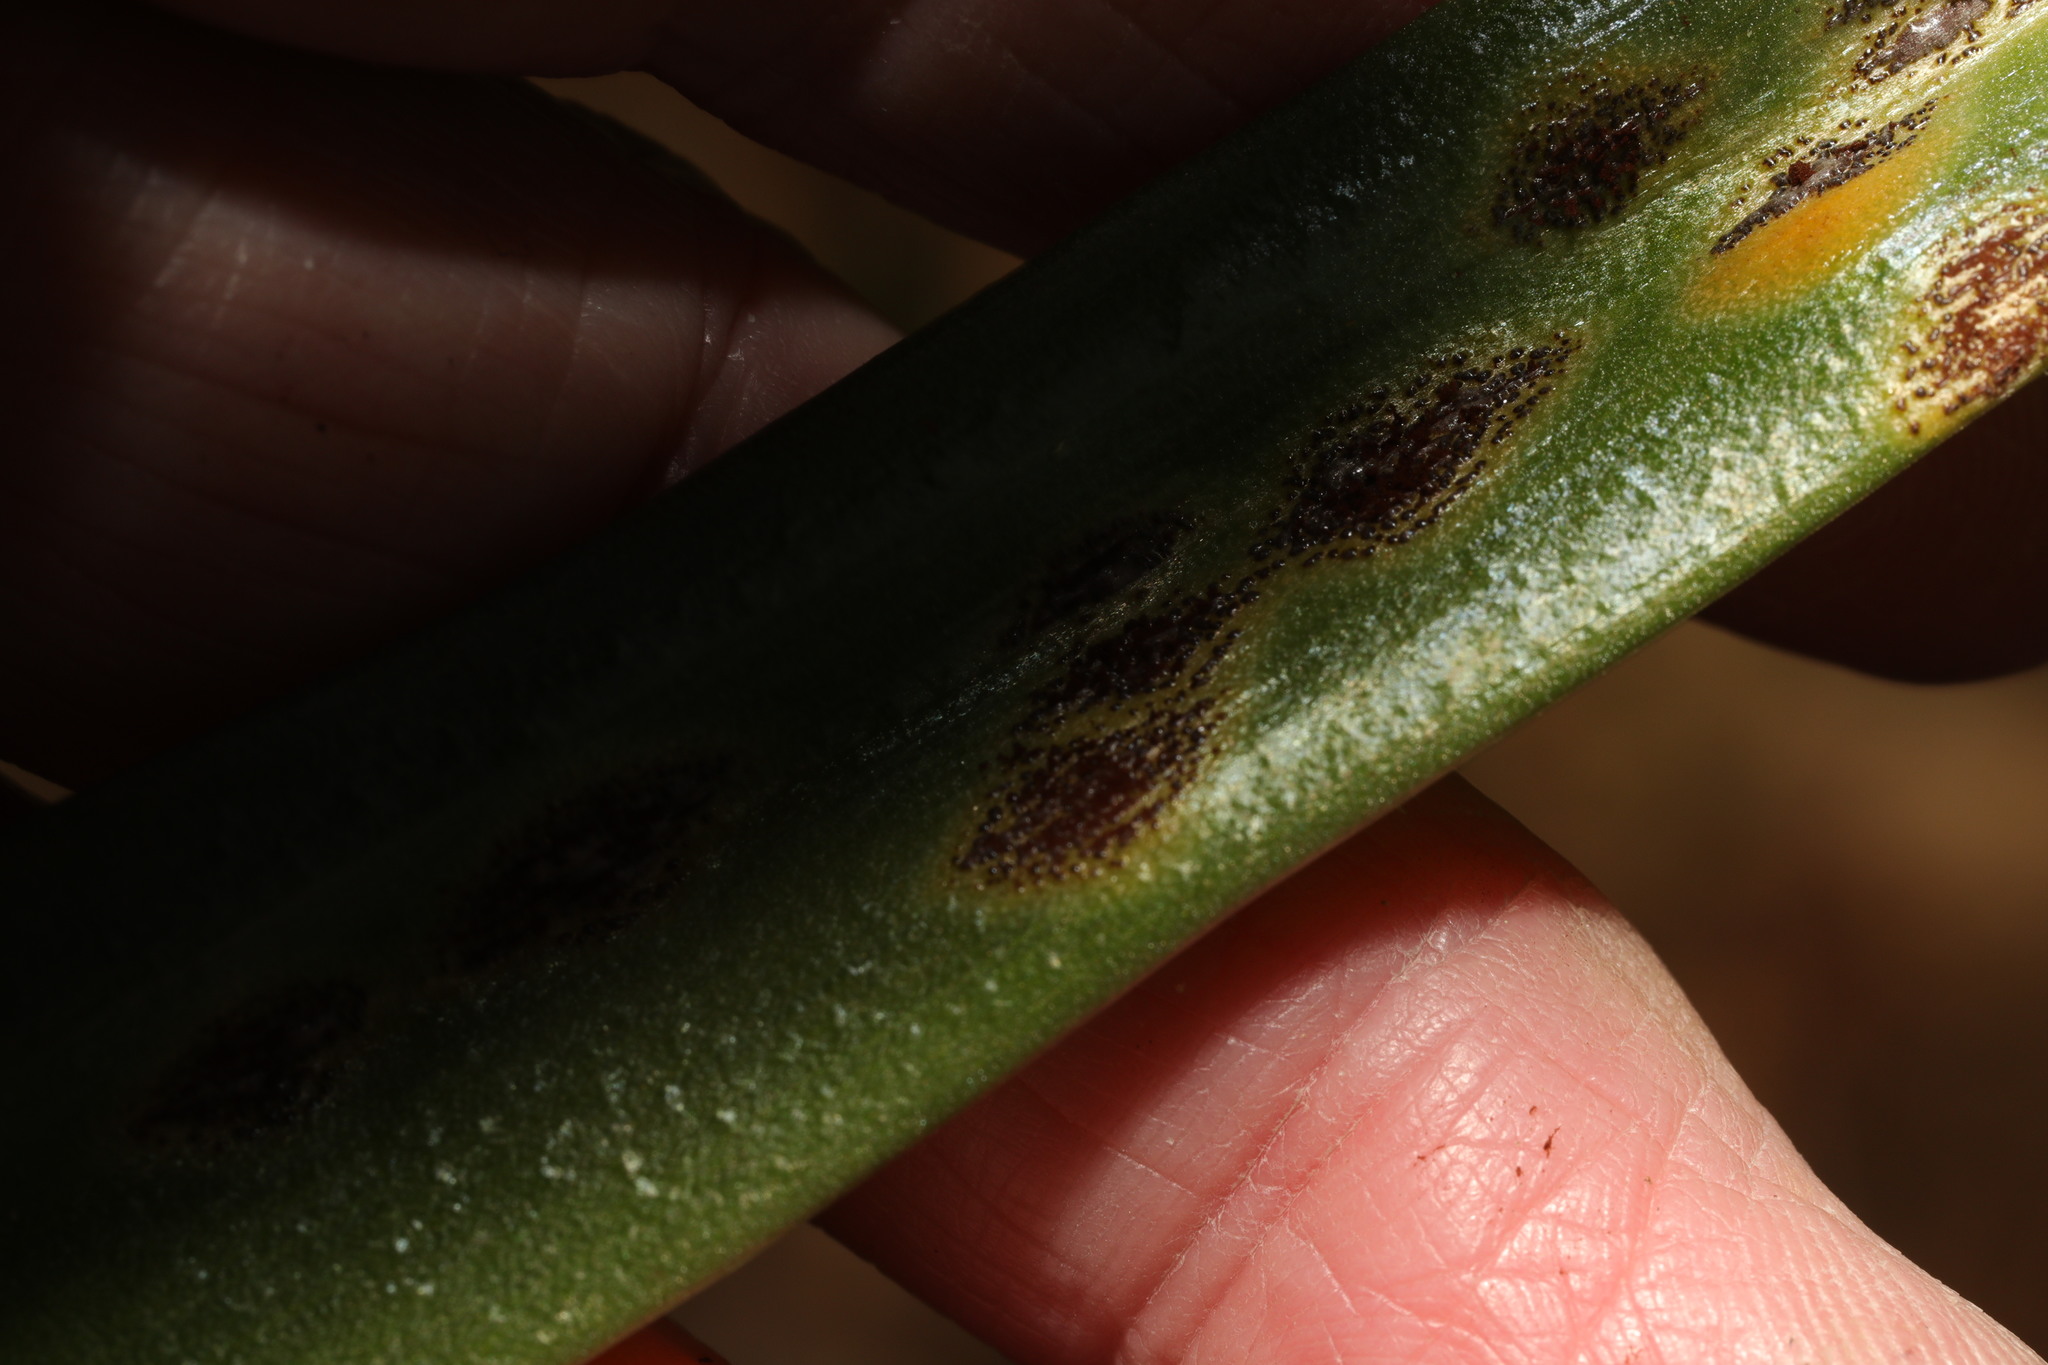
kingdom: Fungi
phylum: Basidiomycota
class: Pucciniomycetes
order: Pucciniales
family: Pucciniaceae
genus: Uromyces
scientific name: Uromyces hyacinthi
